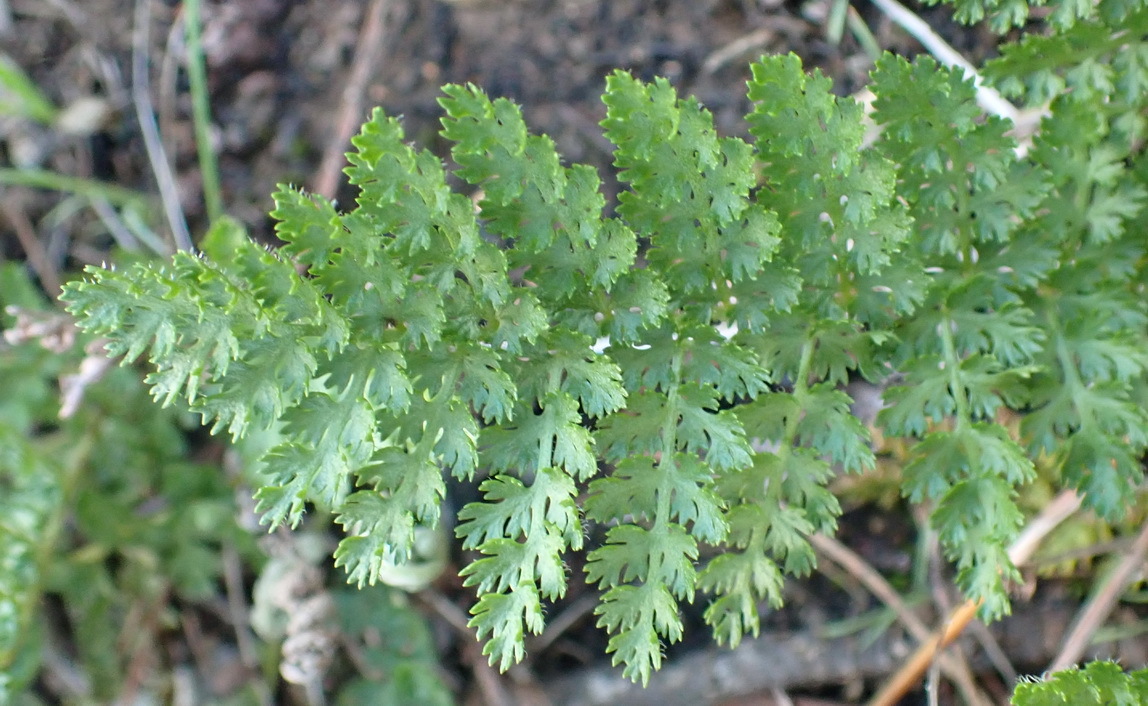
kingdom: Plantae
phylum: Tracheophyta
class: Polypodiopsida
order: Schizaeales
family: Anemiaceae
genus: Anemia
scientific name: Anemia caffrorum
